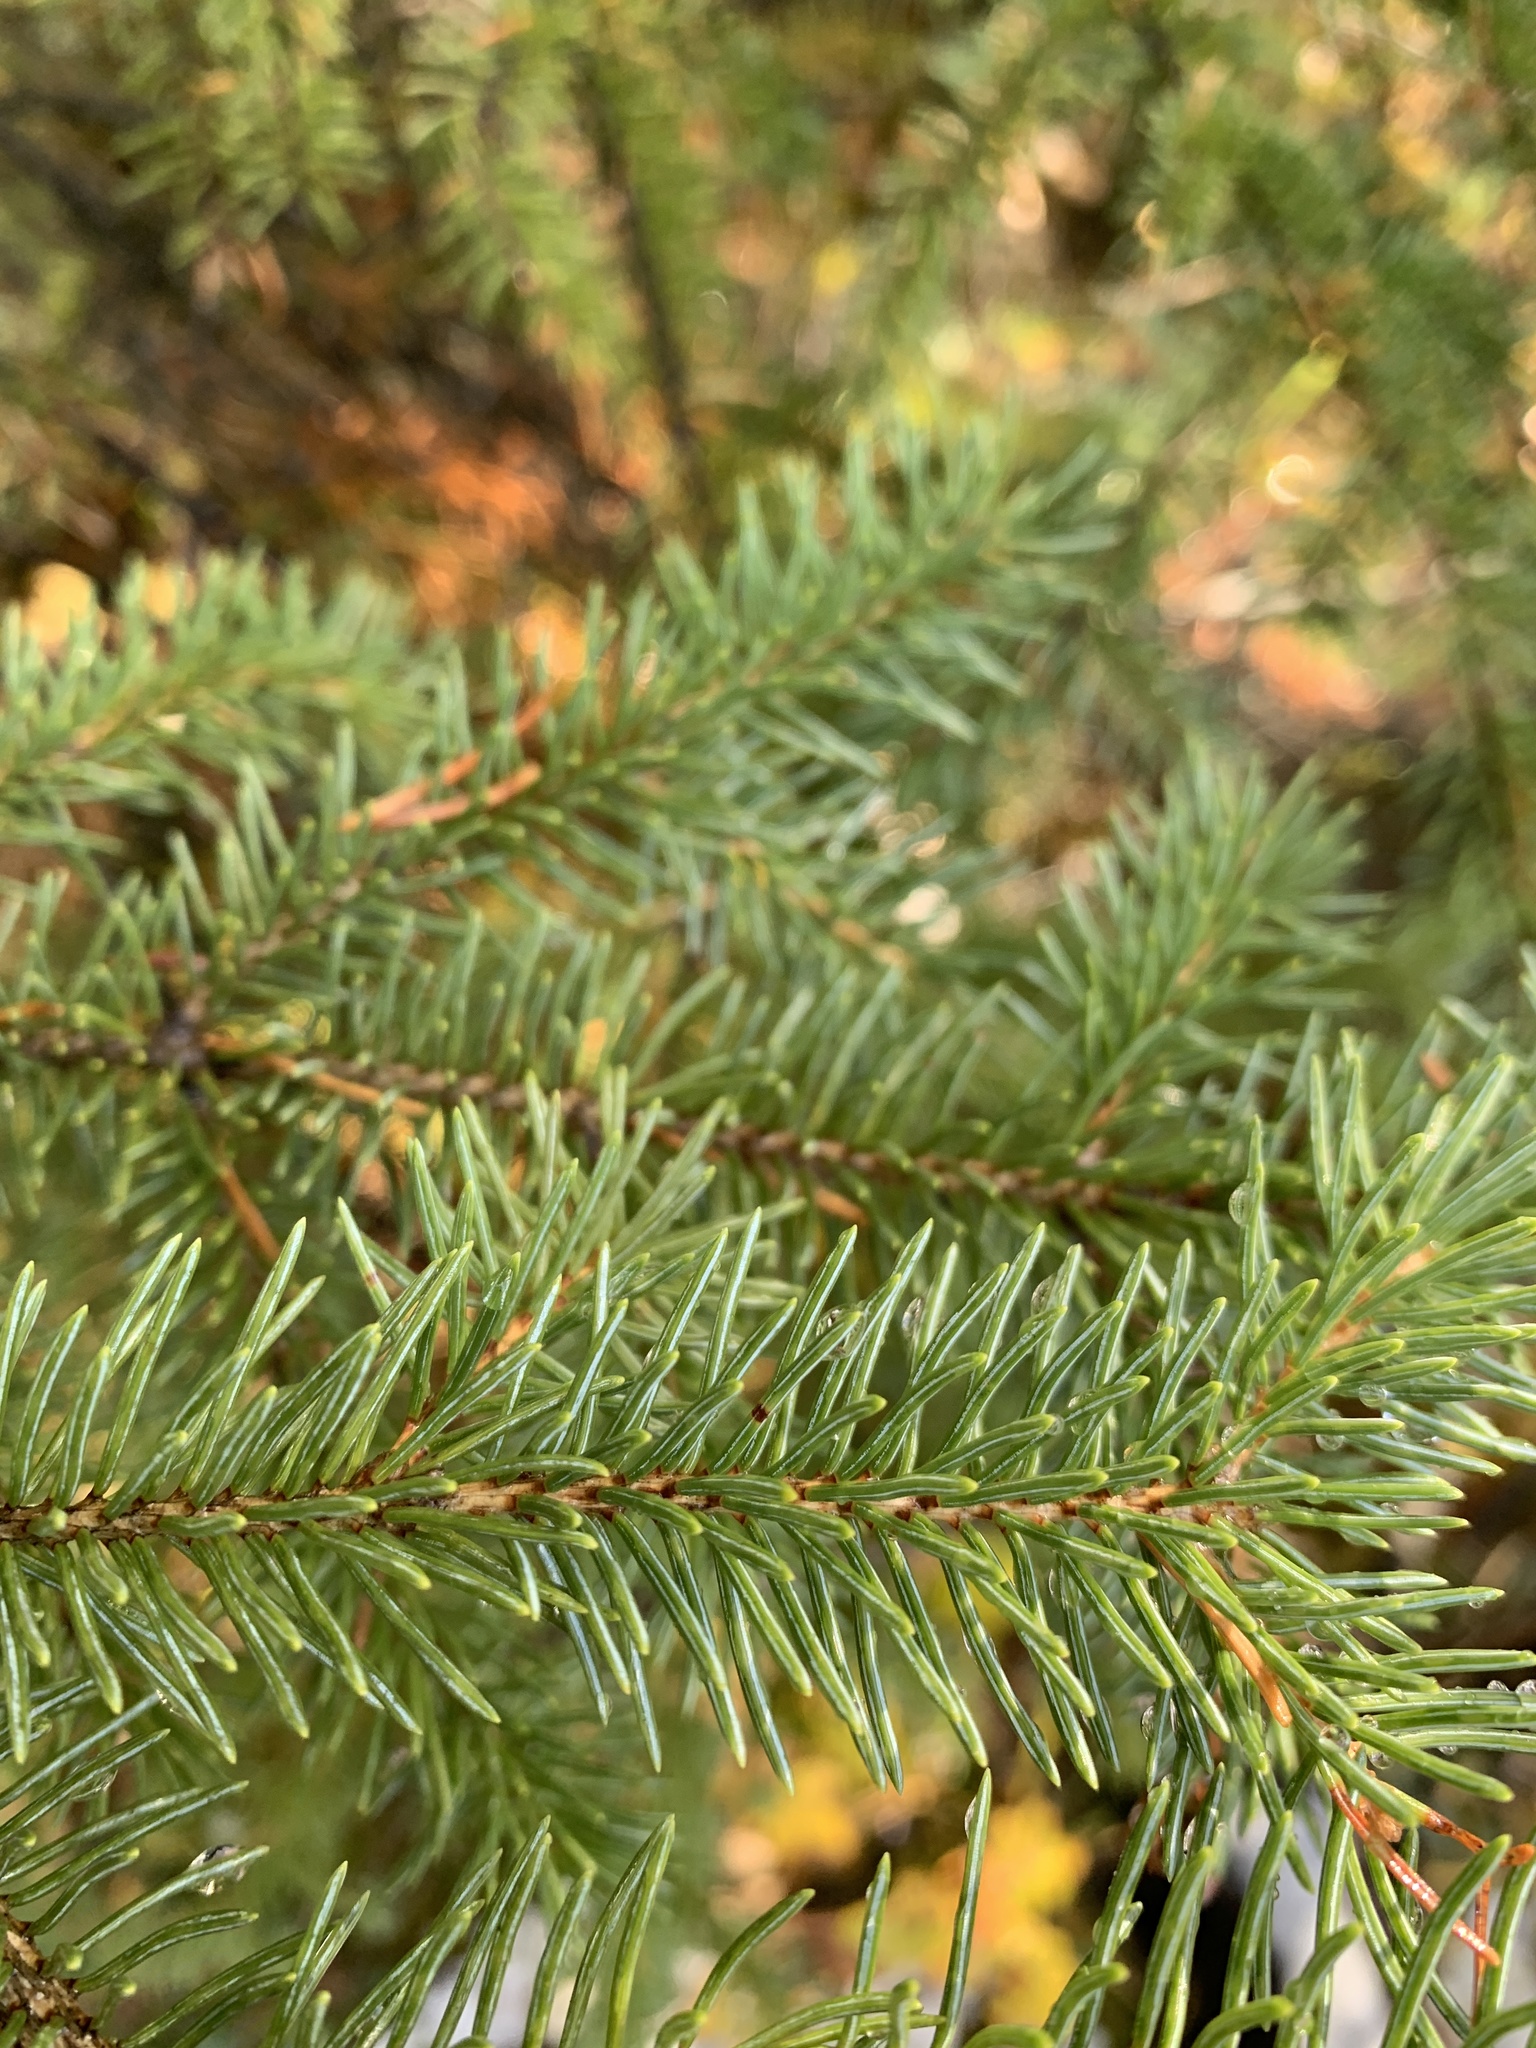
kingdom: Plantae
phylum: Tracheophyta
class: Pinopsida
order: Pinales
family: Pinaceae
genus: Picea
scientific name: Picea glauca
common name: White spruce
